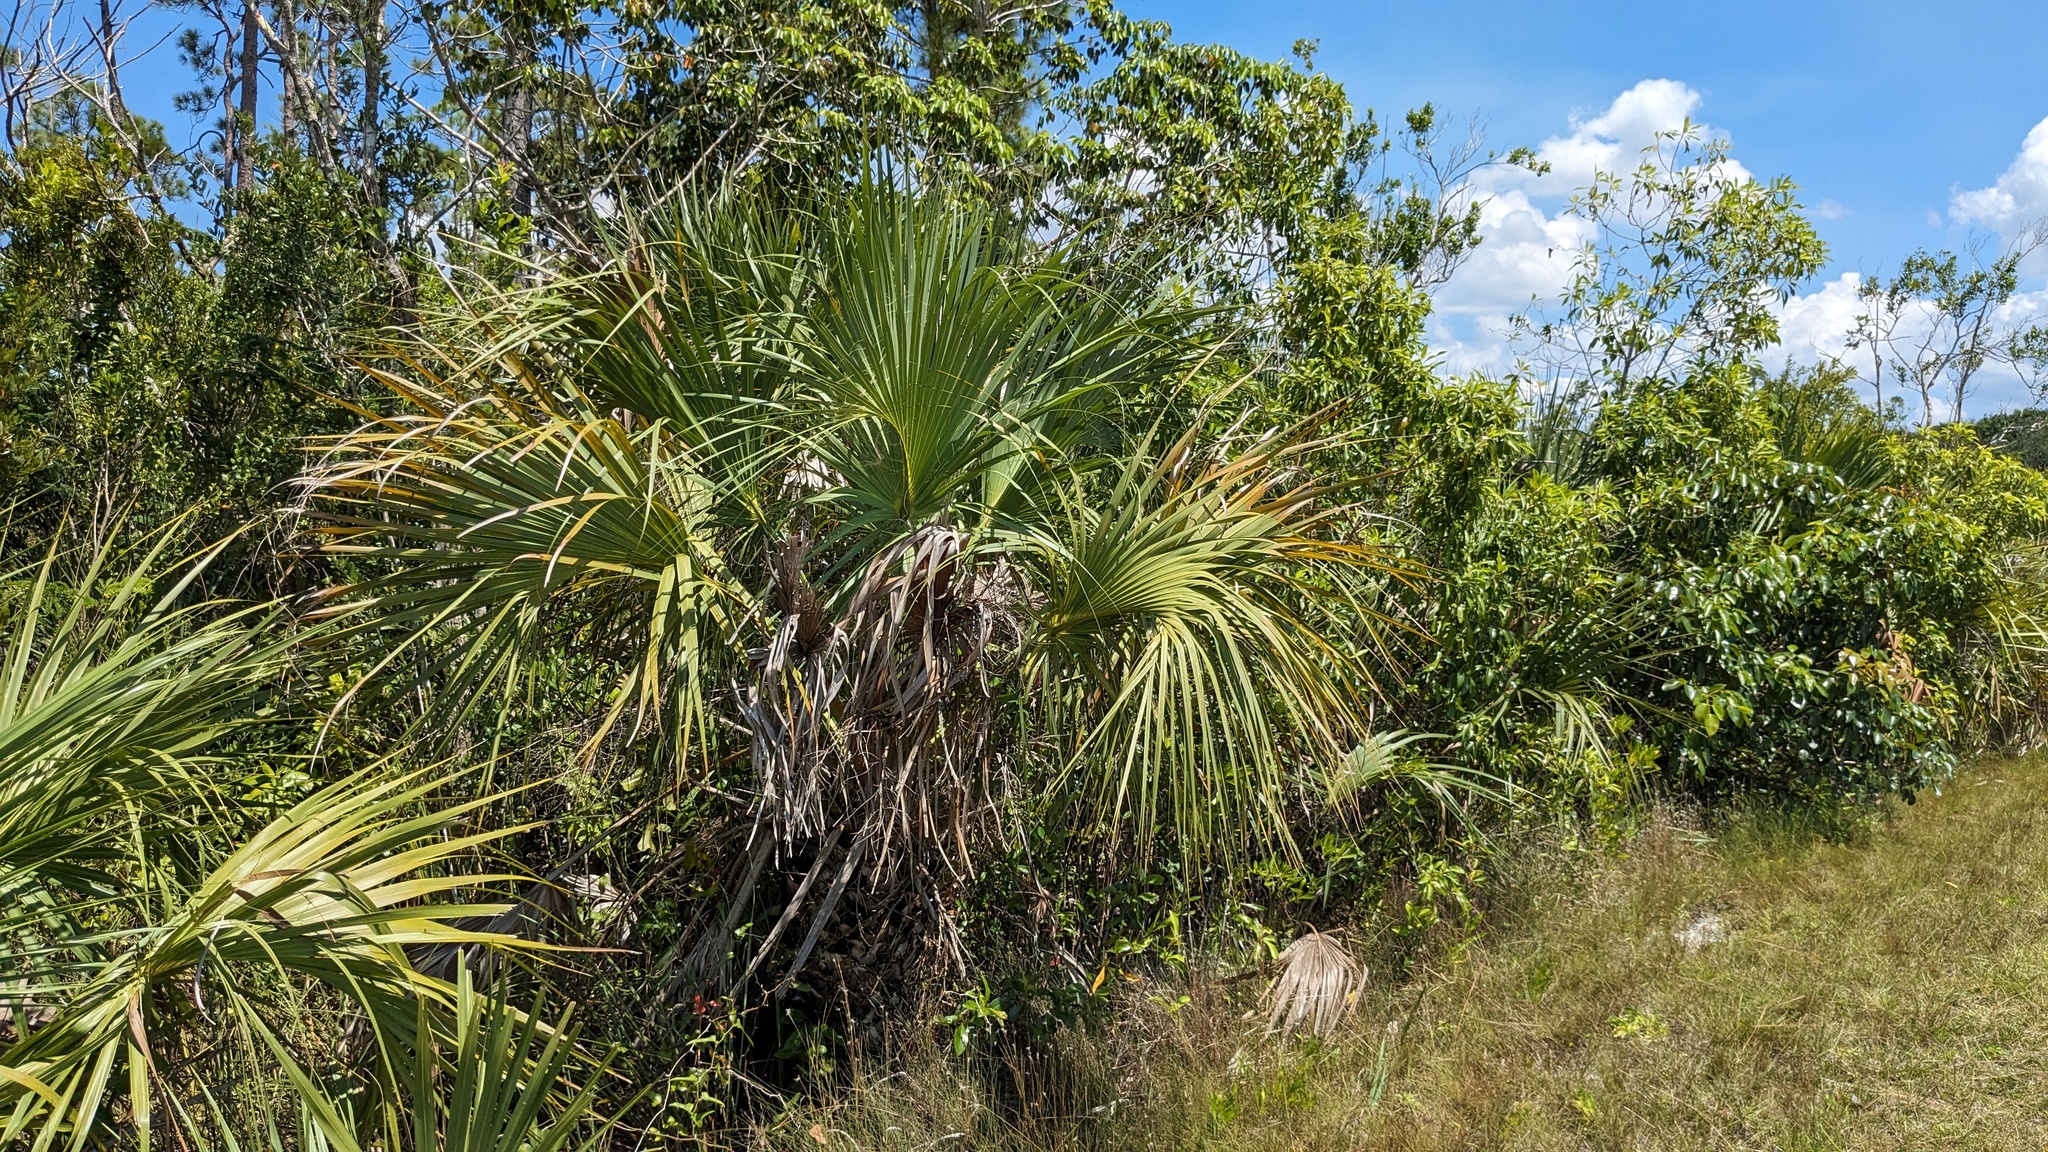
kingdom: Plantae
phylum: Tracheophyta
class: Liliopsida
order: Arecales
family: Arecaceae
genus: Sabal
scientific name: Sabal palmetto
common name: Blue palmetto
